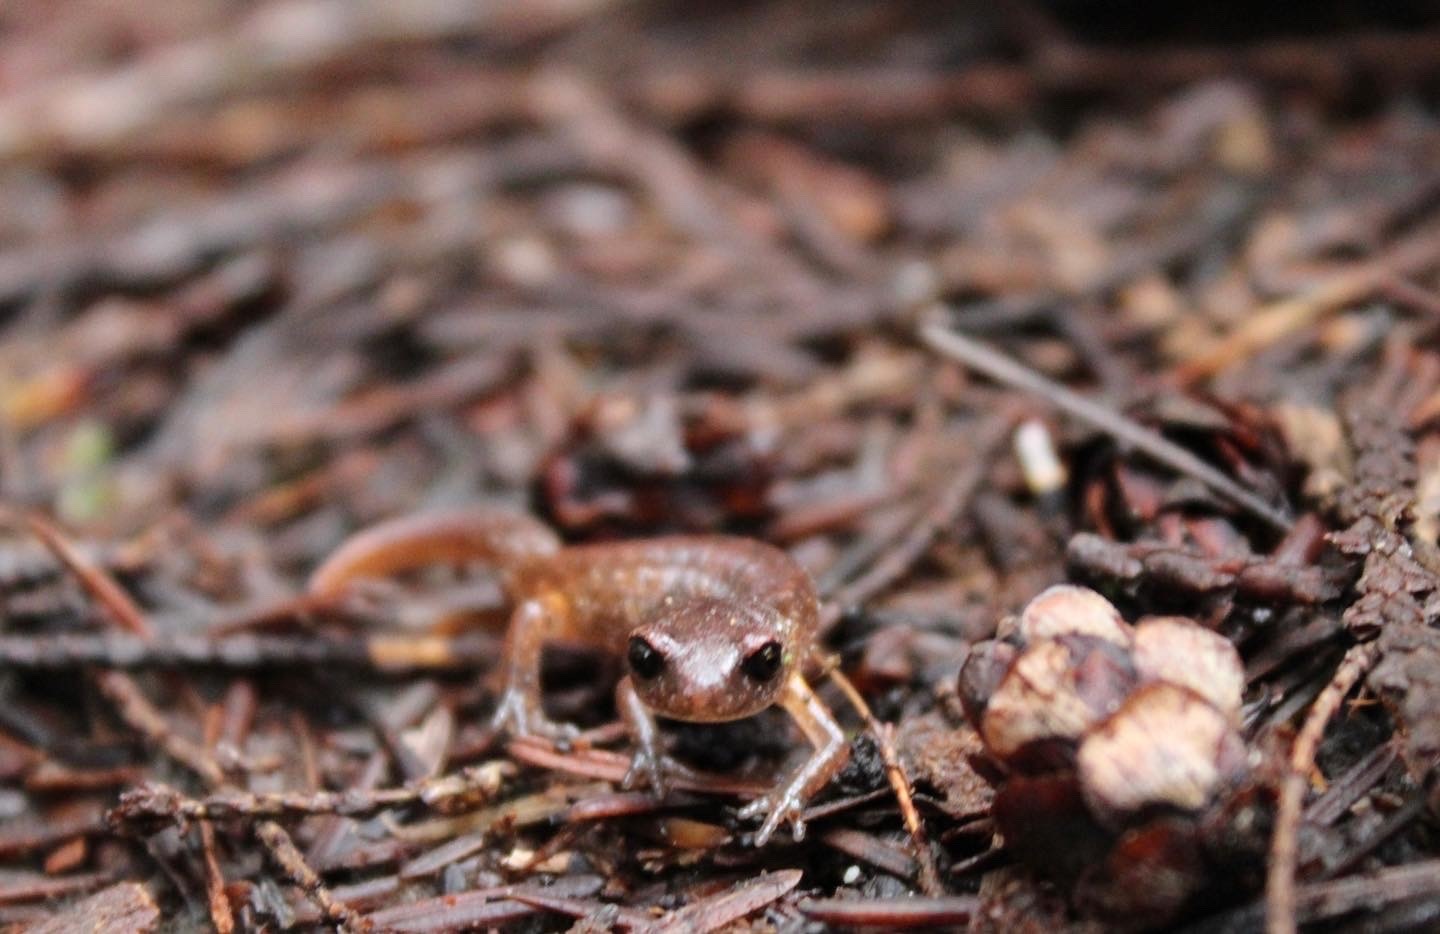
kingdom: Animalia
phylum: Chordata
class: Amphibia
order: Caudata
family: Plethodontidae
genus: Ensatina
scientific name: Ensatina eschscholtzii
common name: Ensatina
